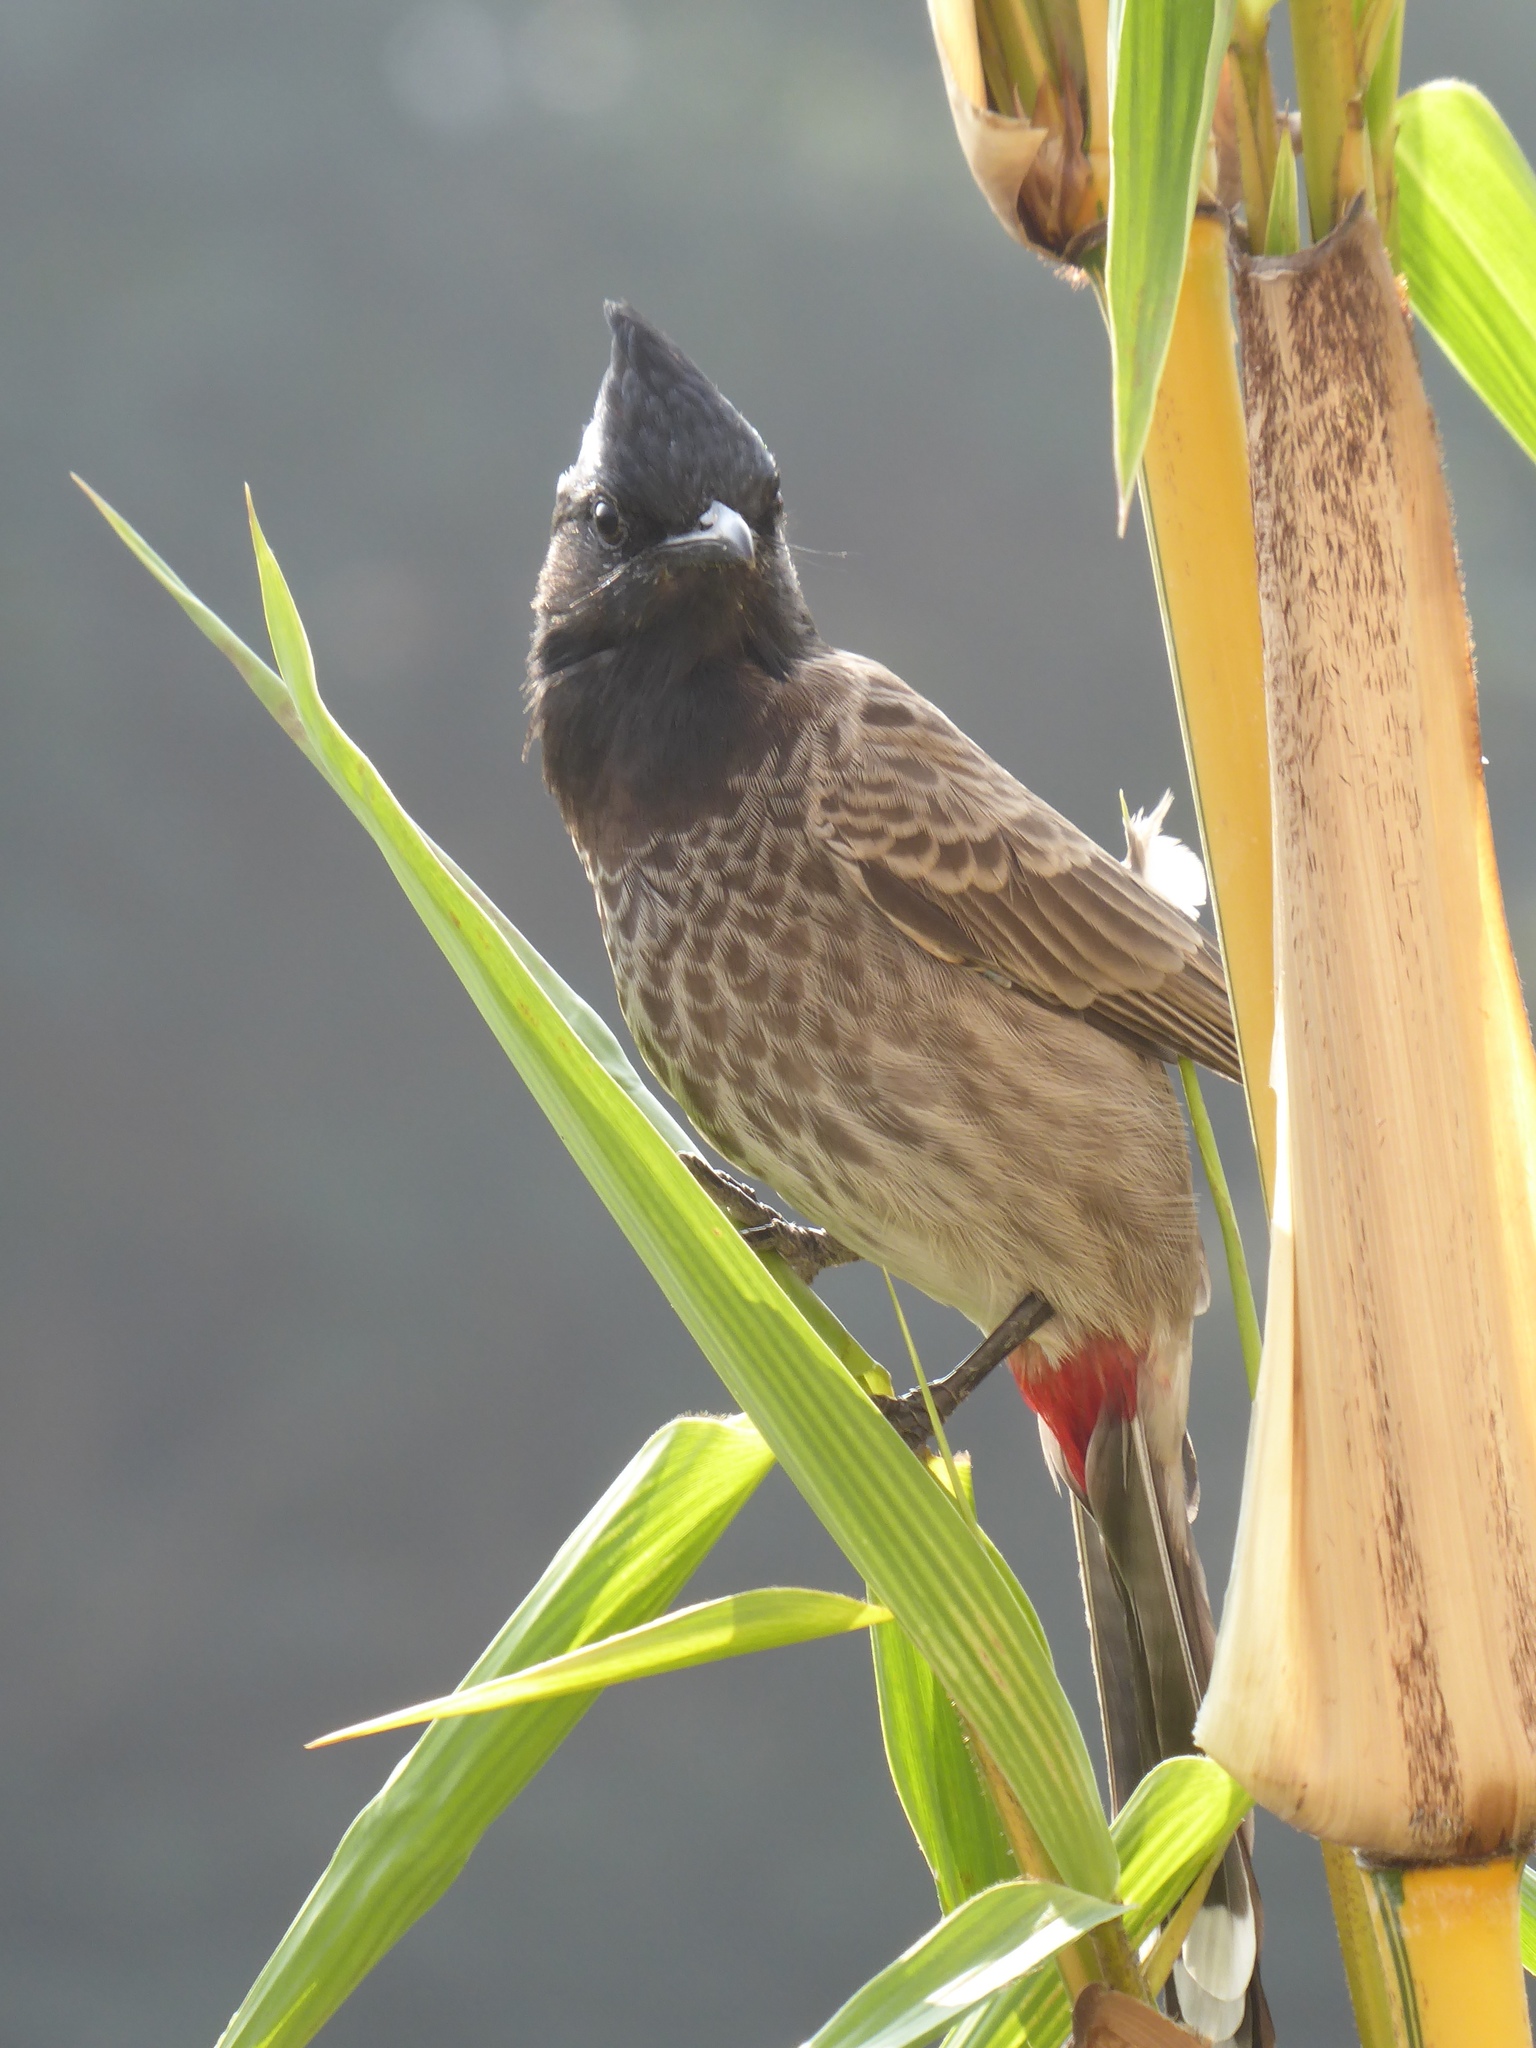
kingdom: Animalia
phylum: Chordata
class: Aves
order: Passeriformes
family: Pycnonotidae
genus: Pycnonotus
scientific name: Pycnonotus cafer
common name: Red-vented bulbul
